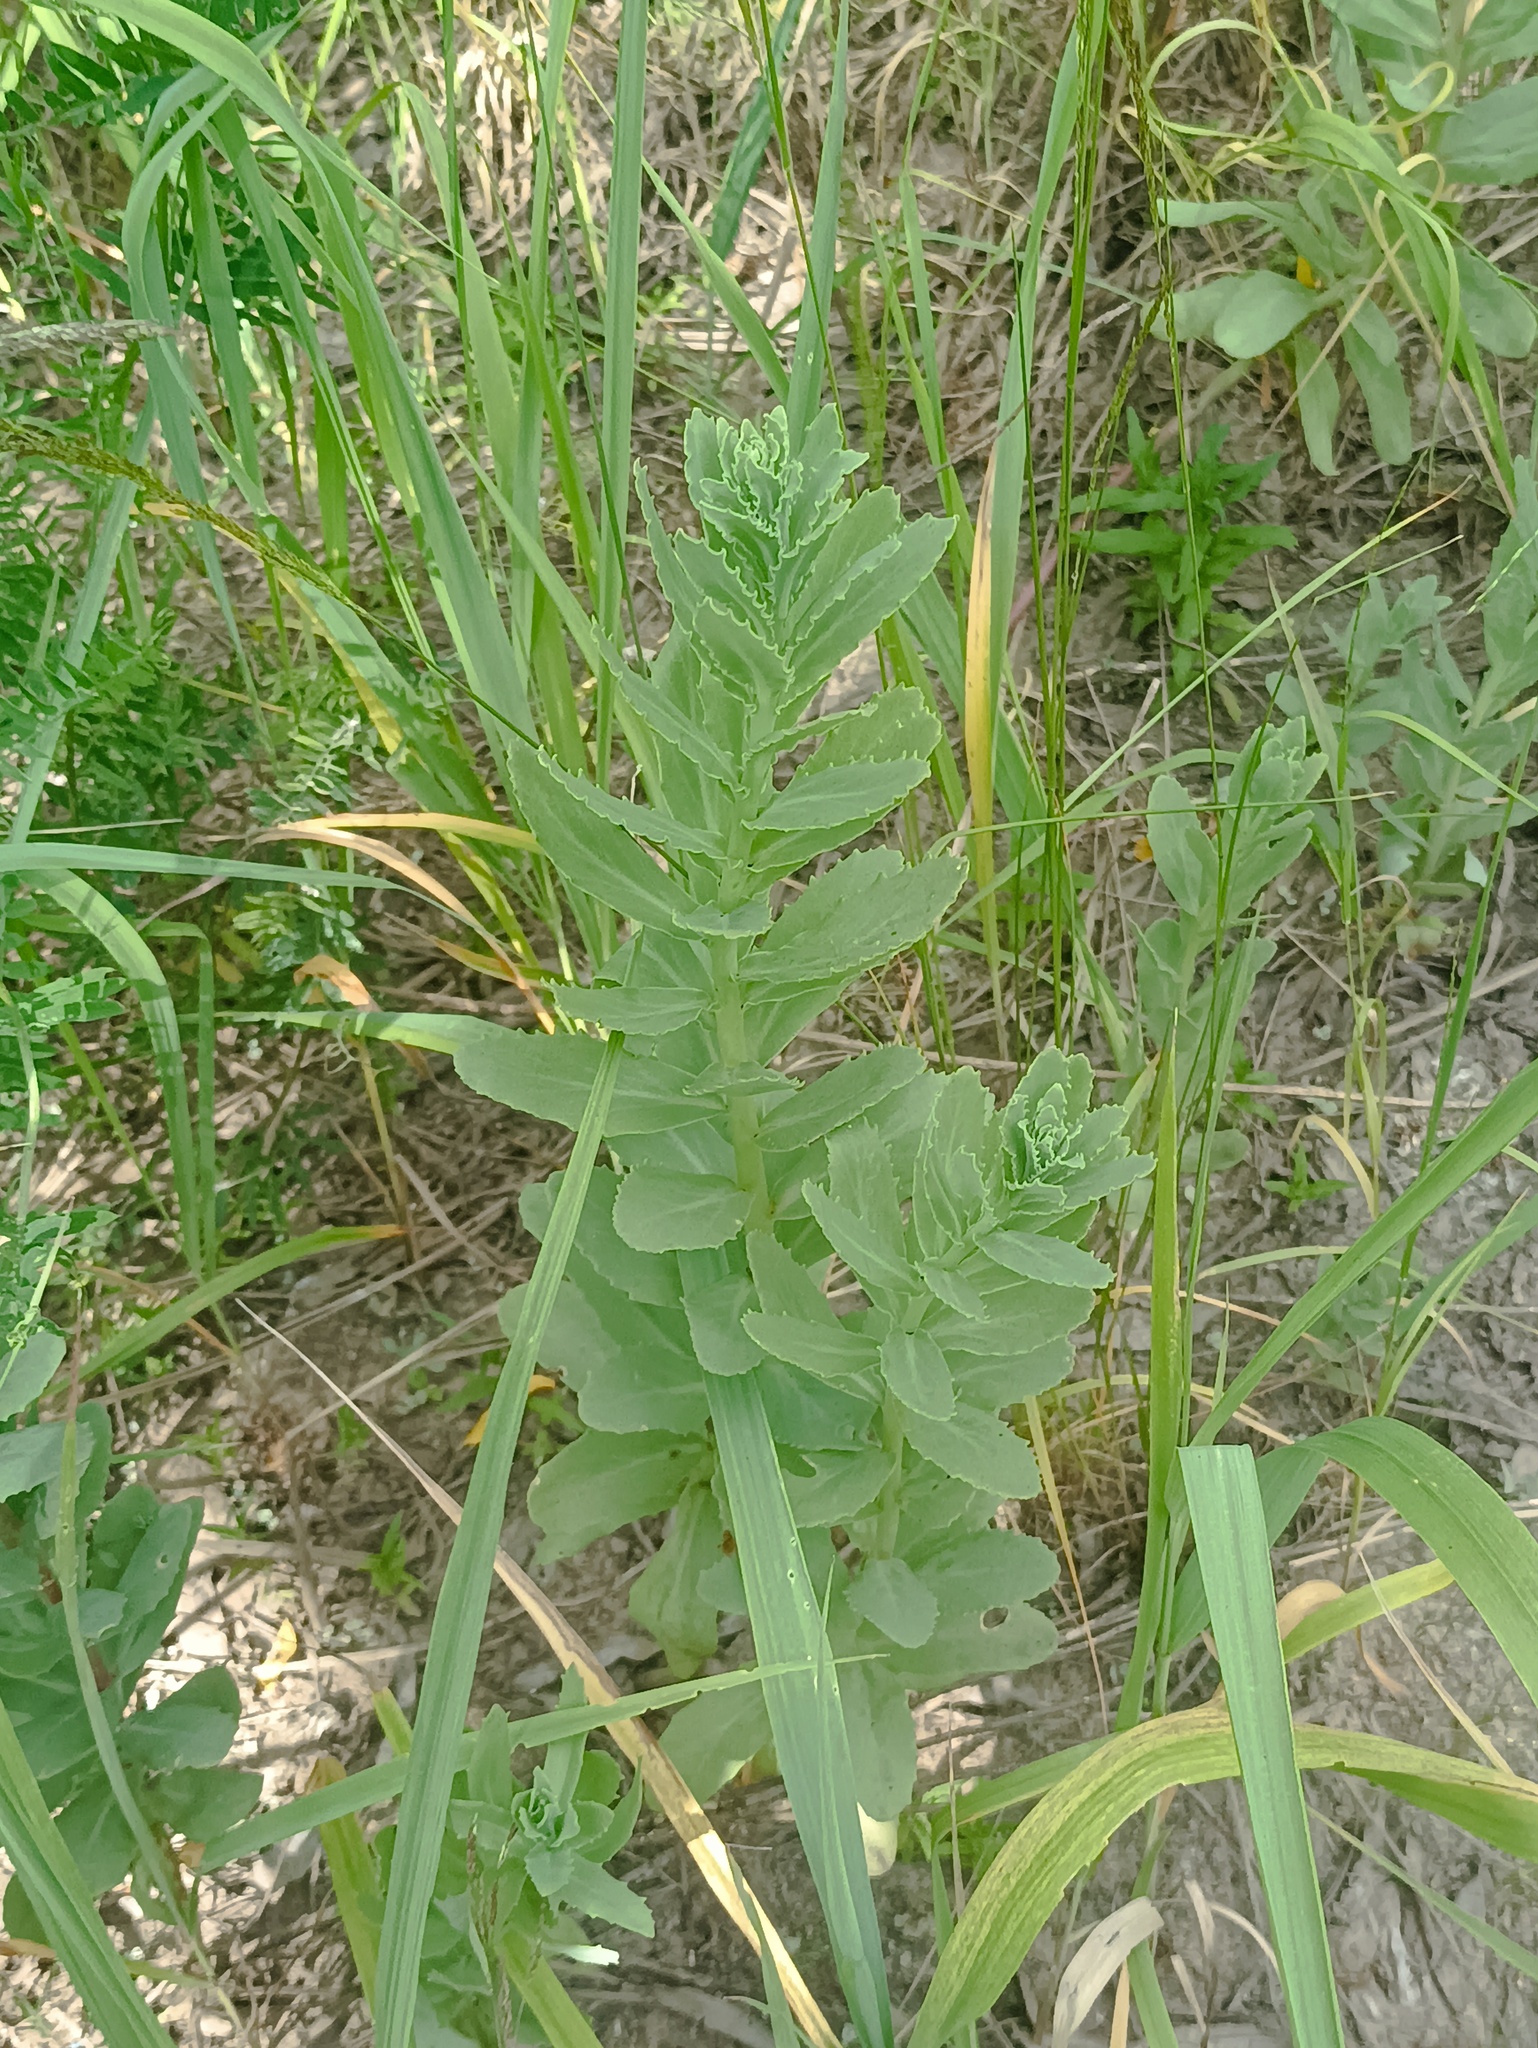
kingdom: Plantae
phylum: Tracheophyta
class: Magnoliopsida
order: Saxifragales
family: Crassulaceae
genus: Hylotelephium
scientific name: Hylotelephium telephium
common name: Live-forever
